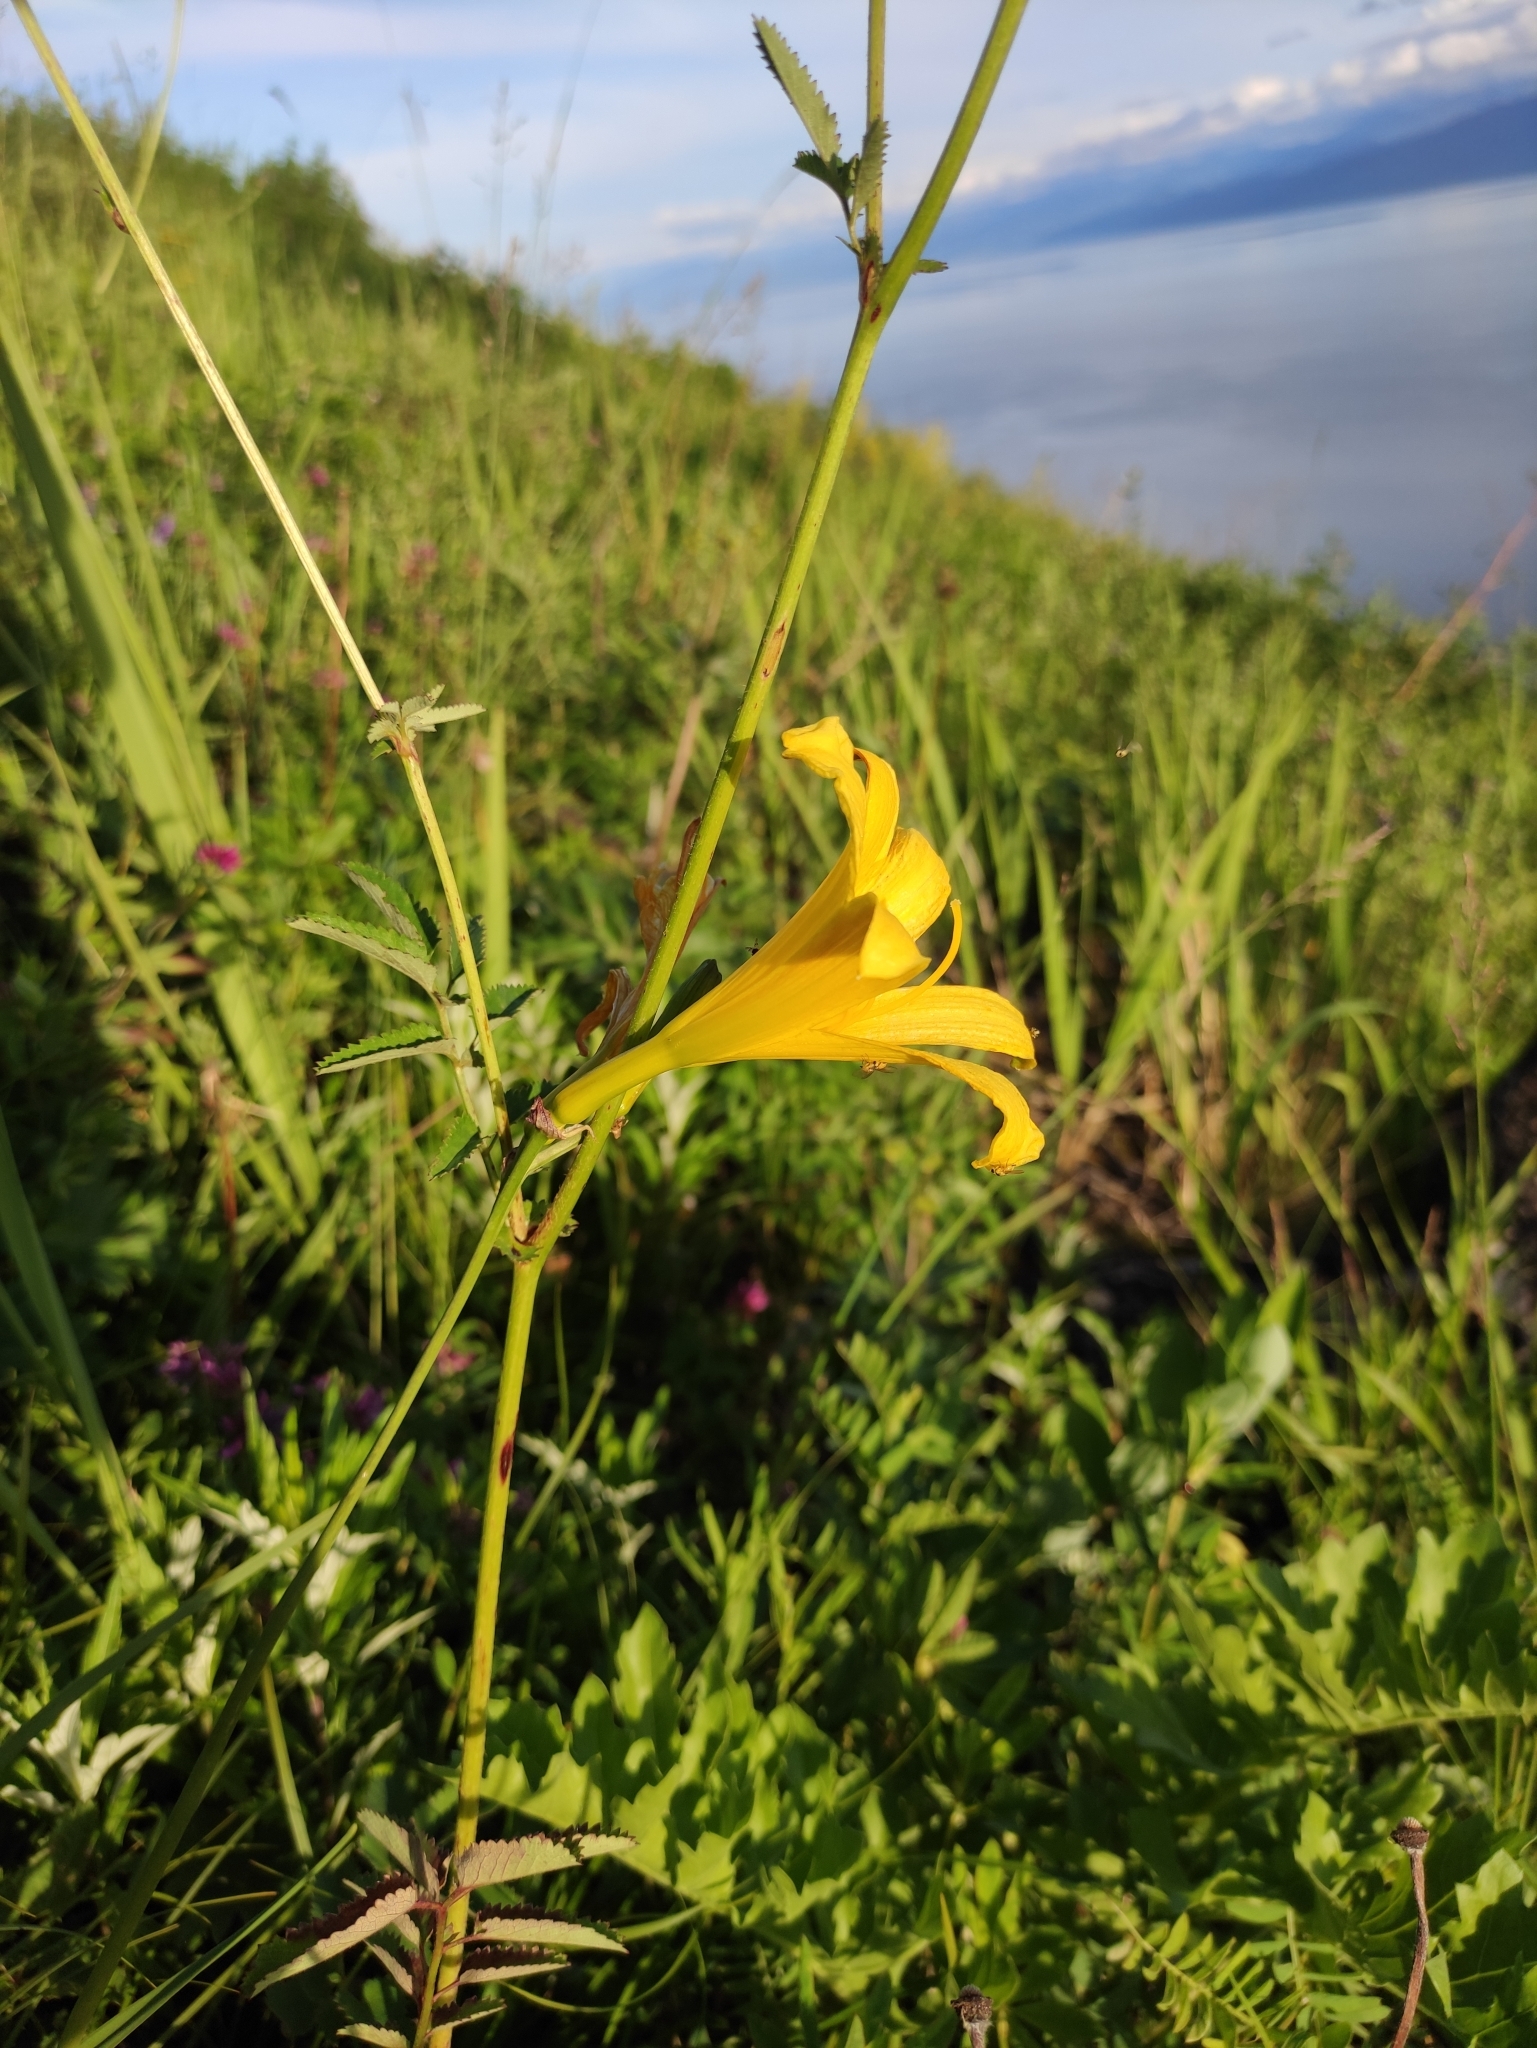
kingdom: Plantae
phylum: Tracheophyta
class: Liliopsida
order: Asparagales
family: Asphodelaceae
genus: Hemerocallis
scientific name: Hemerocallis minor
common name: Small daylily
